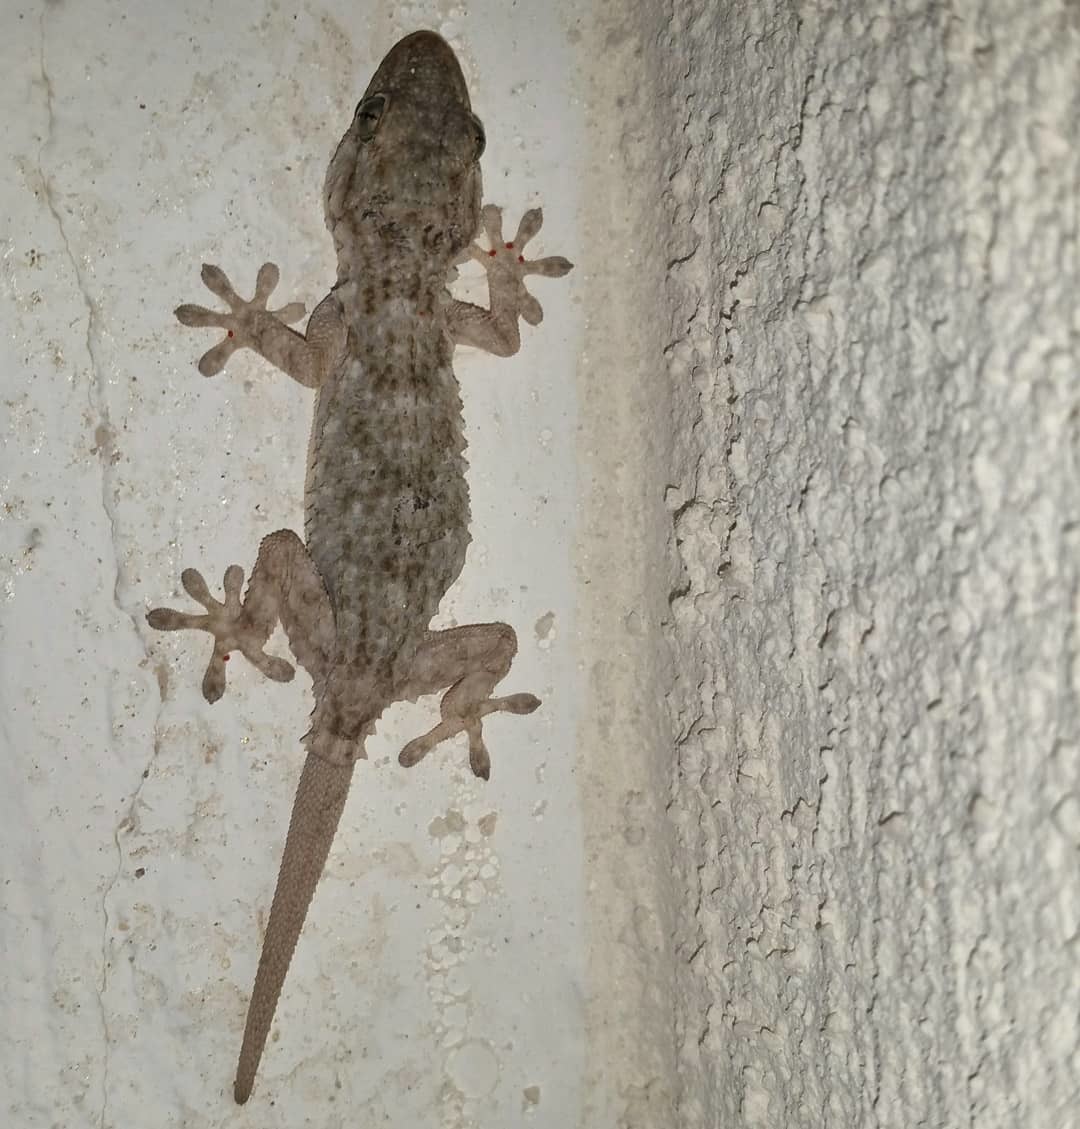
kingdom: Animalia
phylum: Chordata
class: Squamata
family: Phyllodactylidae
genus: Tarentola
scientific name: Tarentola mauritanica
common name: Moorish gecko
